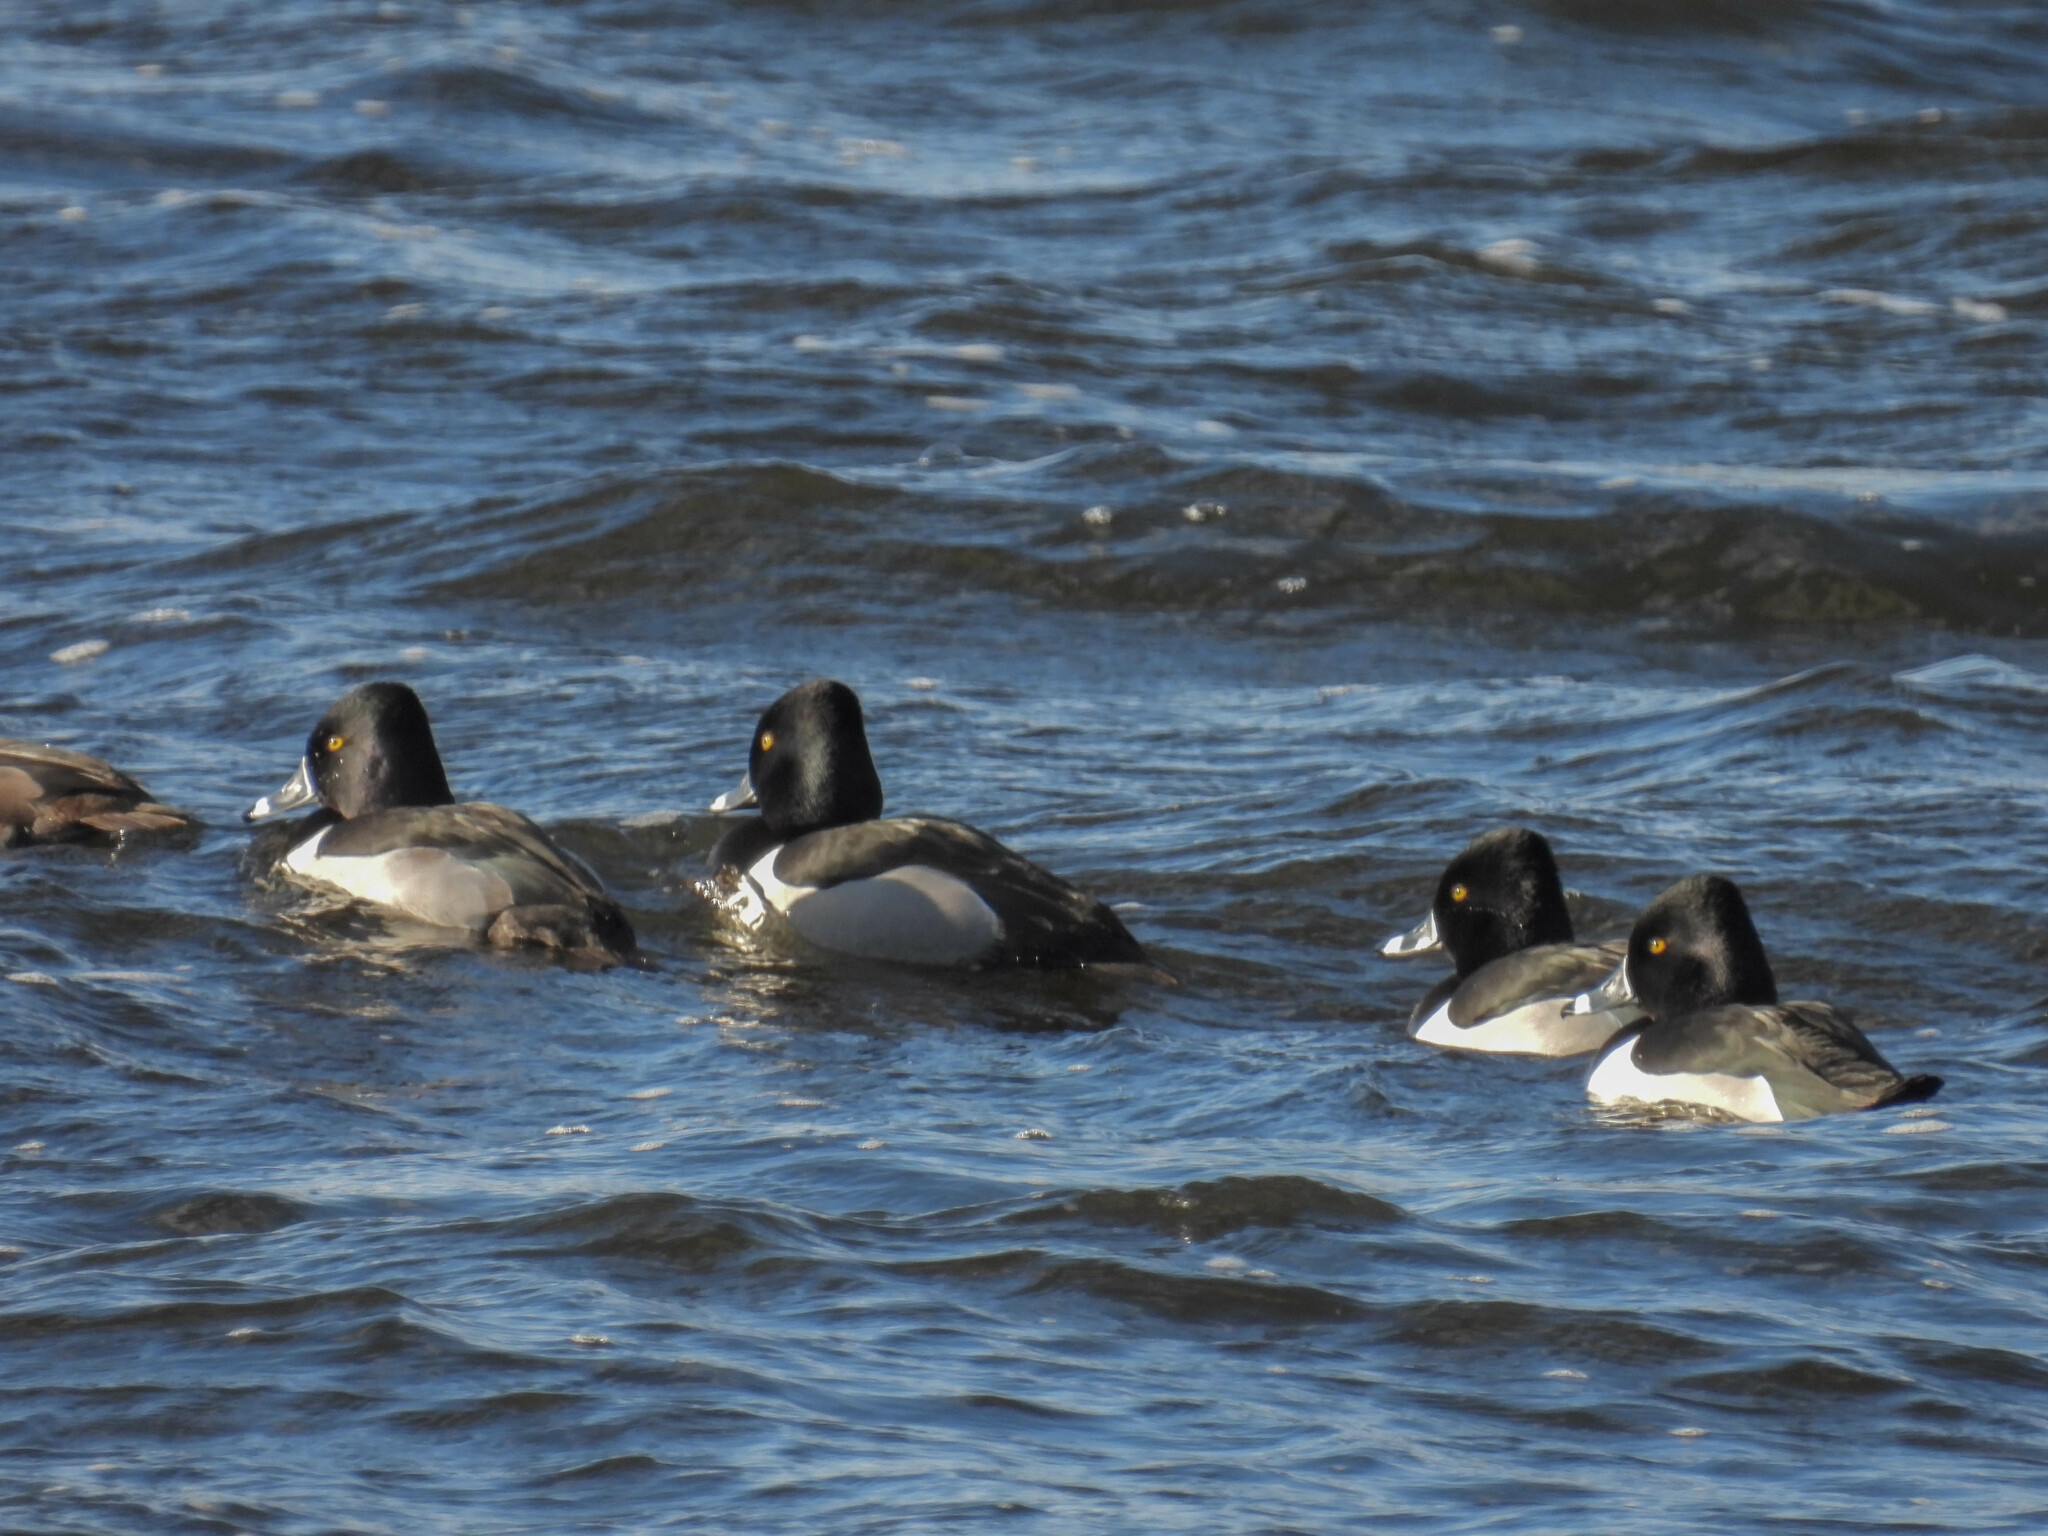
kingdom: Animalia
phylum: Chordata
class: Aves
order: Anseriformes
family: Anatidae
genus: Aythya
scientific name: Aythya collaris
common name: Ring-necked duck
